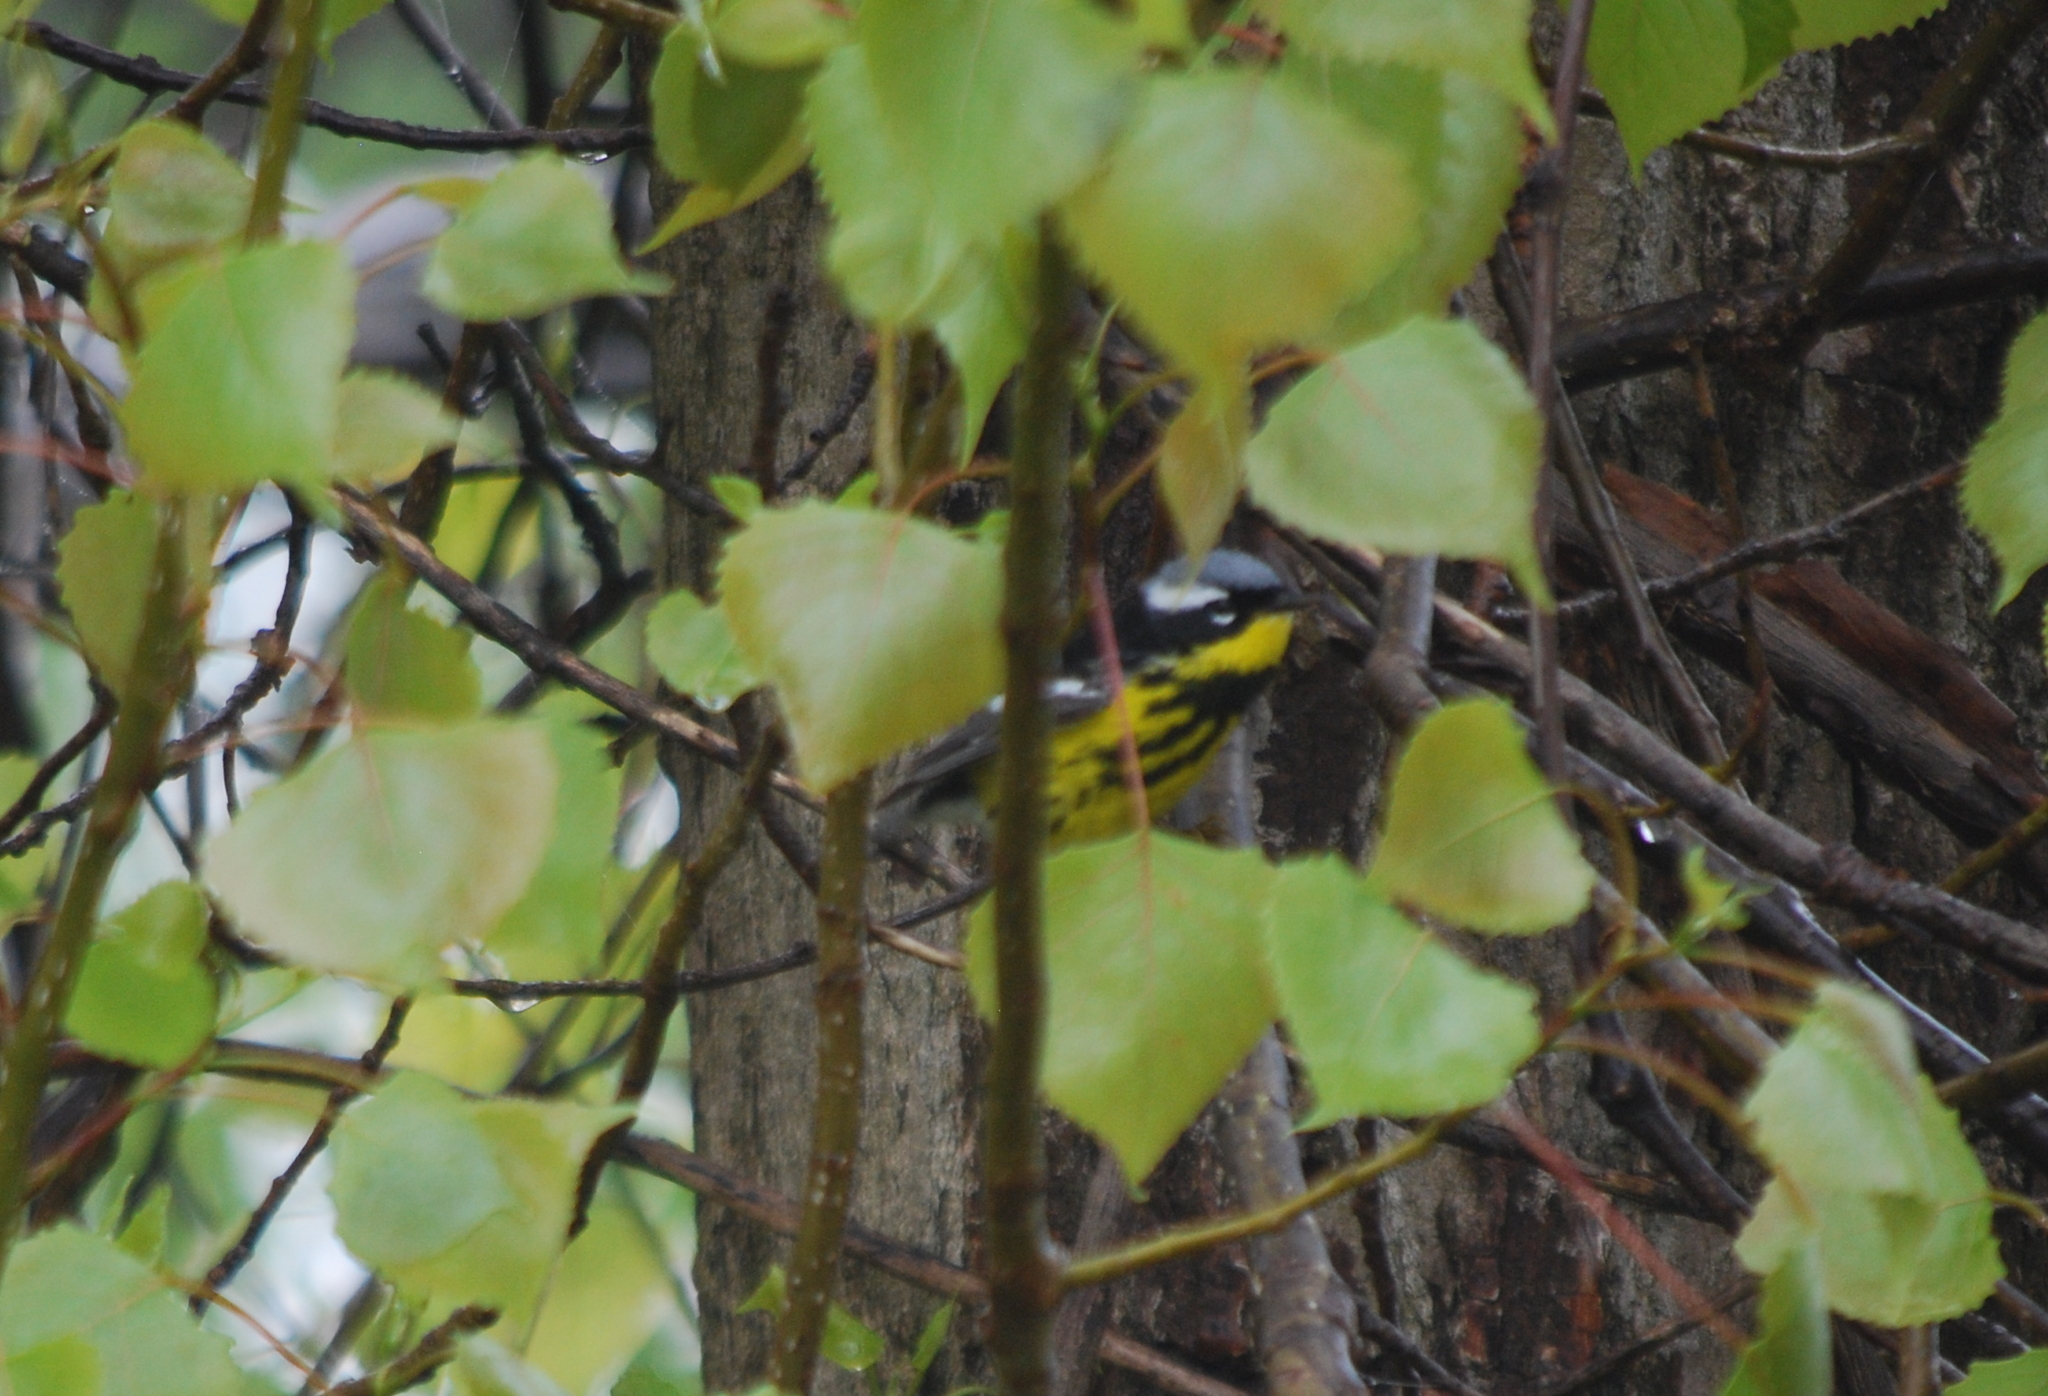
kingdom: Animalia
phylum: Chordata
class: Aves
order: Passeriformes
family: Parulidae
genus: Setophaga
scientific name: Setophaga magnolia
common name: Magnolia warbler
